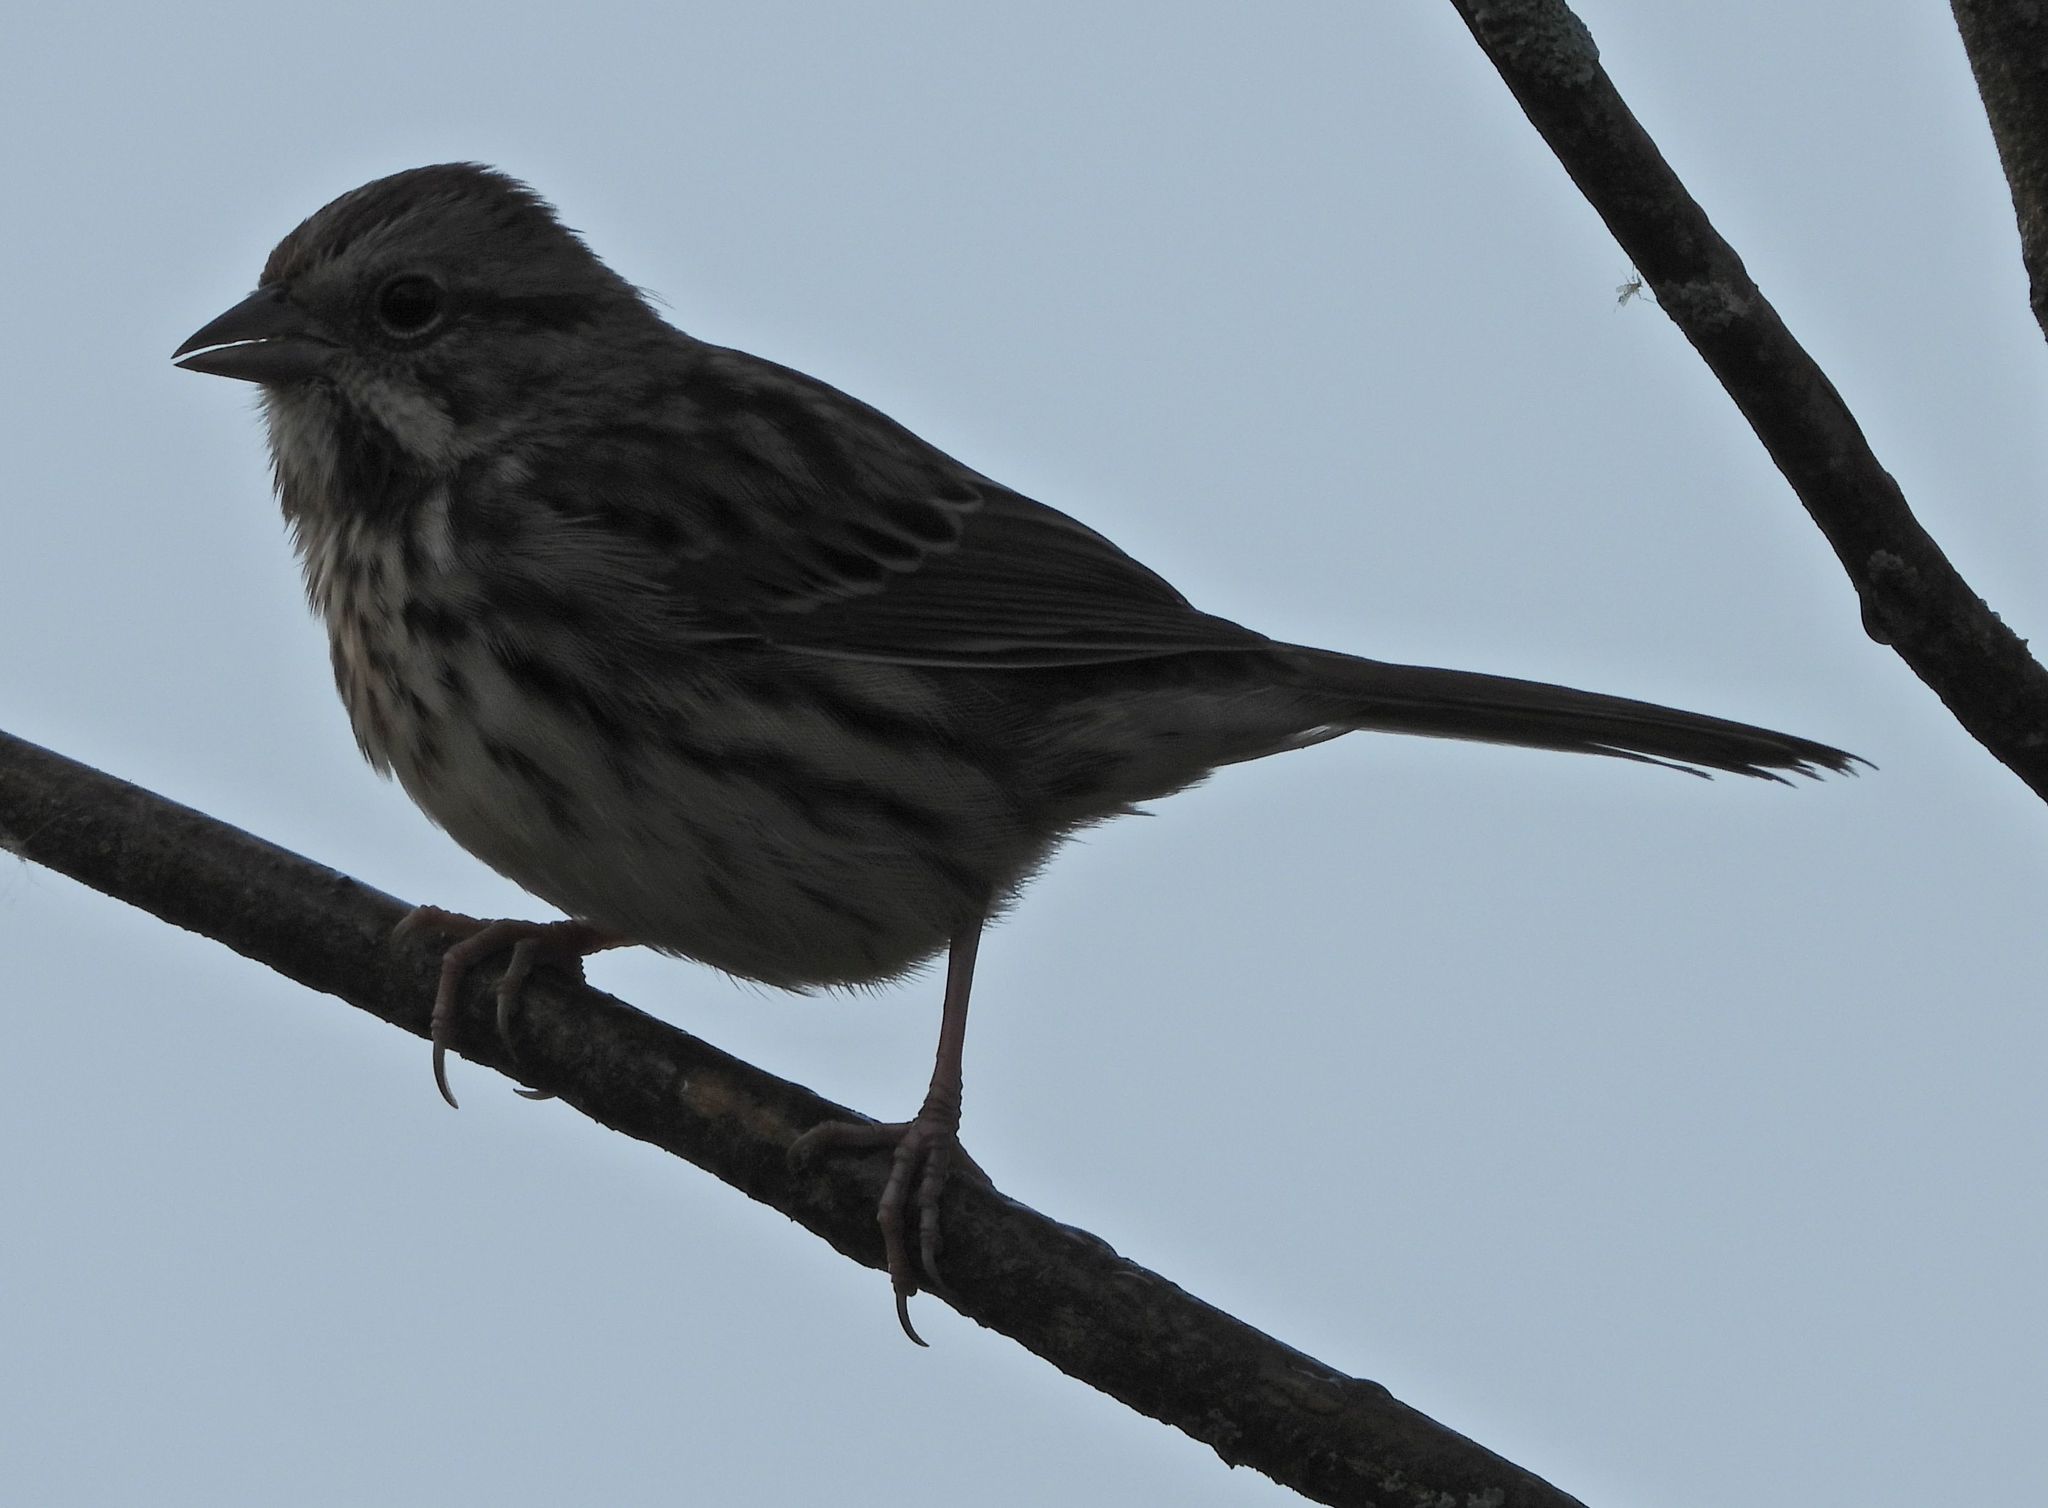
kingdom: Animalia
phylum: Chordata
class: Aves
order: Passeriformes
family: Passerellidae
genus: Melospiza
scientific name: Melospiza melodia
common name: Song sparrow
